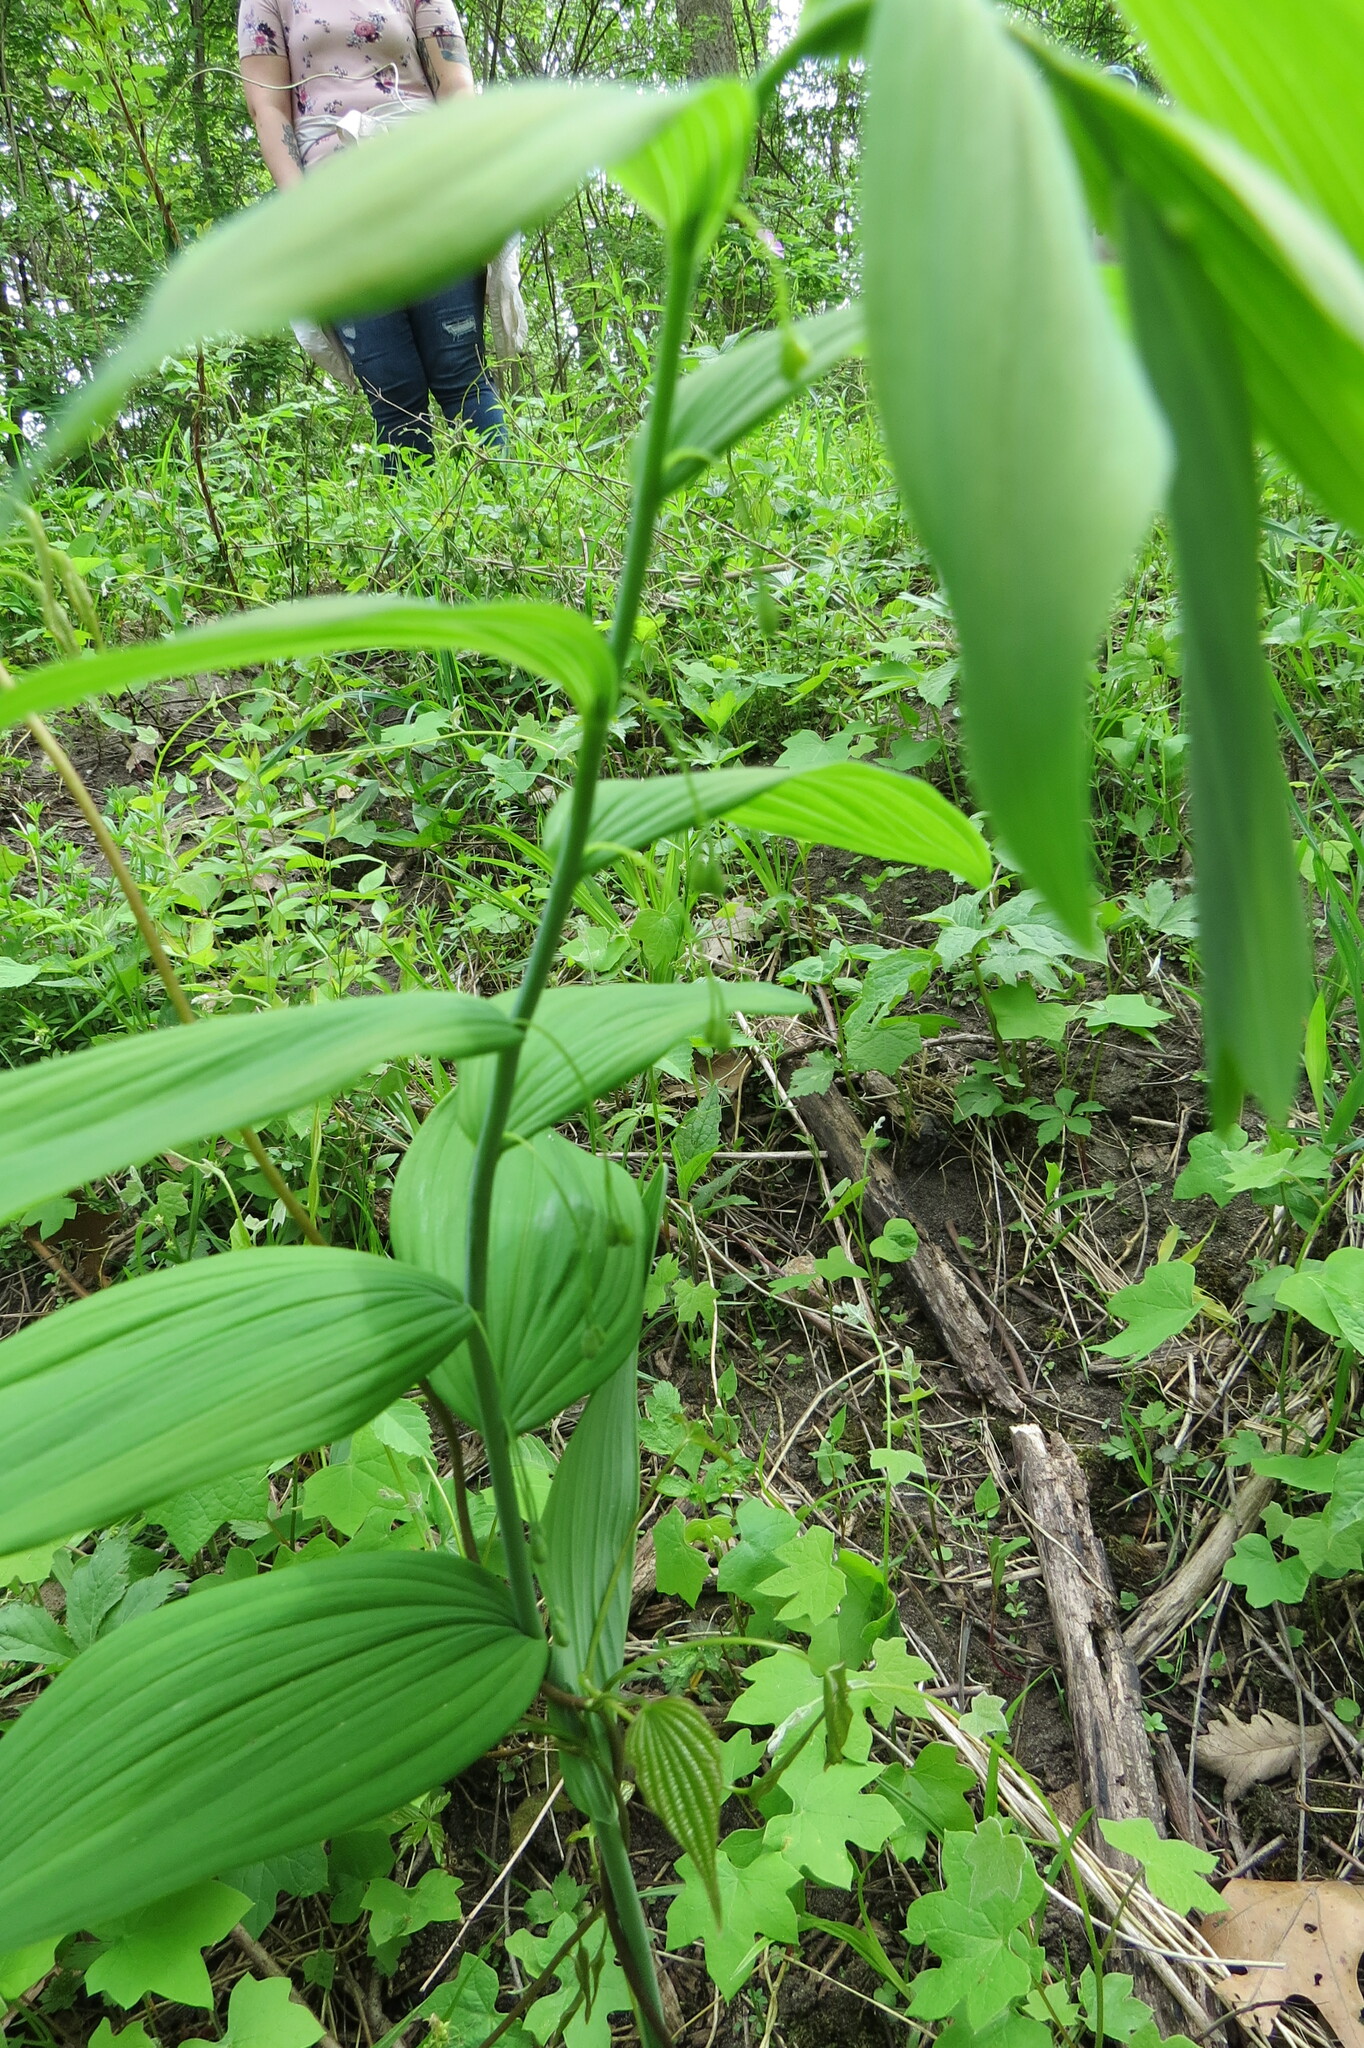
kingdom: Plantae
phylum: Tracheophyta
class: Liliopsida
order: Asparagales
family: Asparagaceae
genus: Polygonatum
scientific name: Polygonatum biflorum
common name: American solomon's-seal
